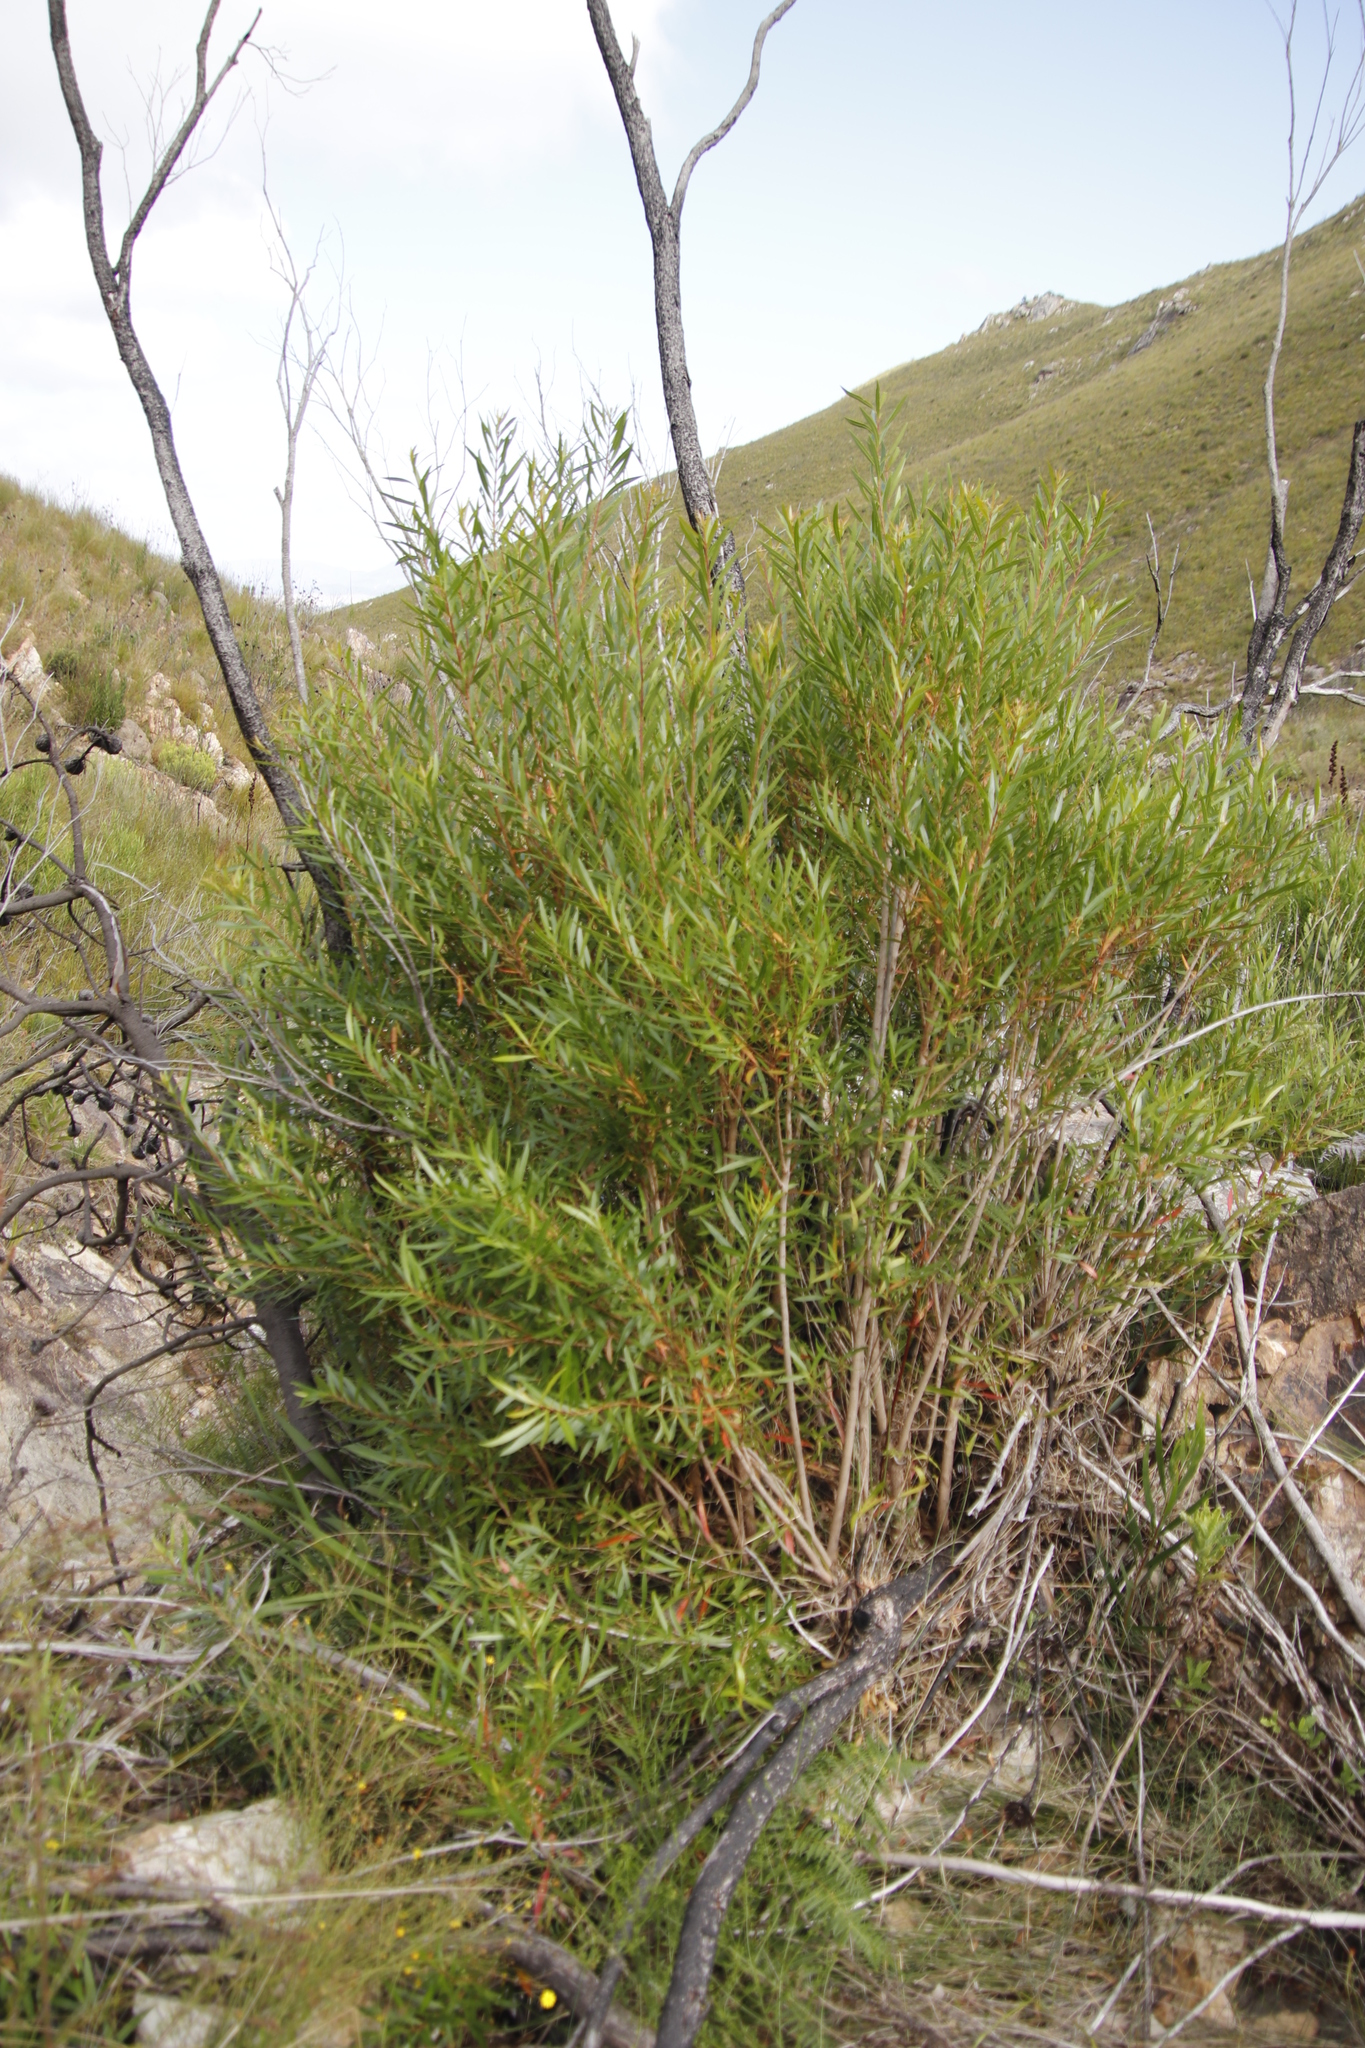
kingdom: Plantae
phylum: Tracheophyta
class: Magnoliopsida
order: Myrtales
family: Myrtaceae
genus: Callistemon
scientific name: Callistemon lanceolatus
